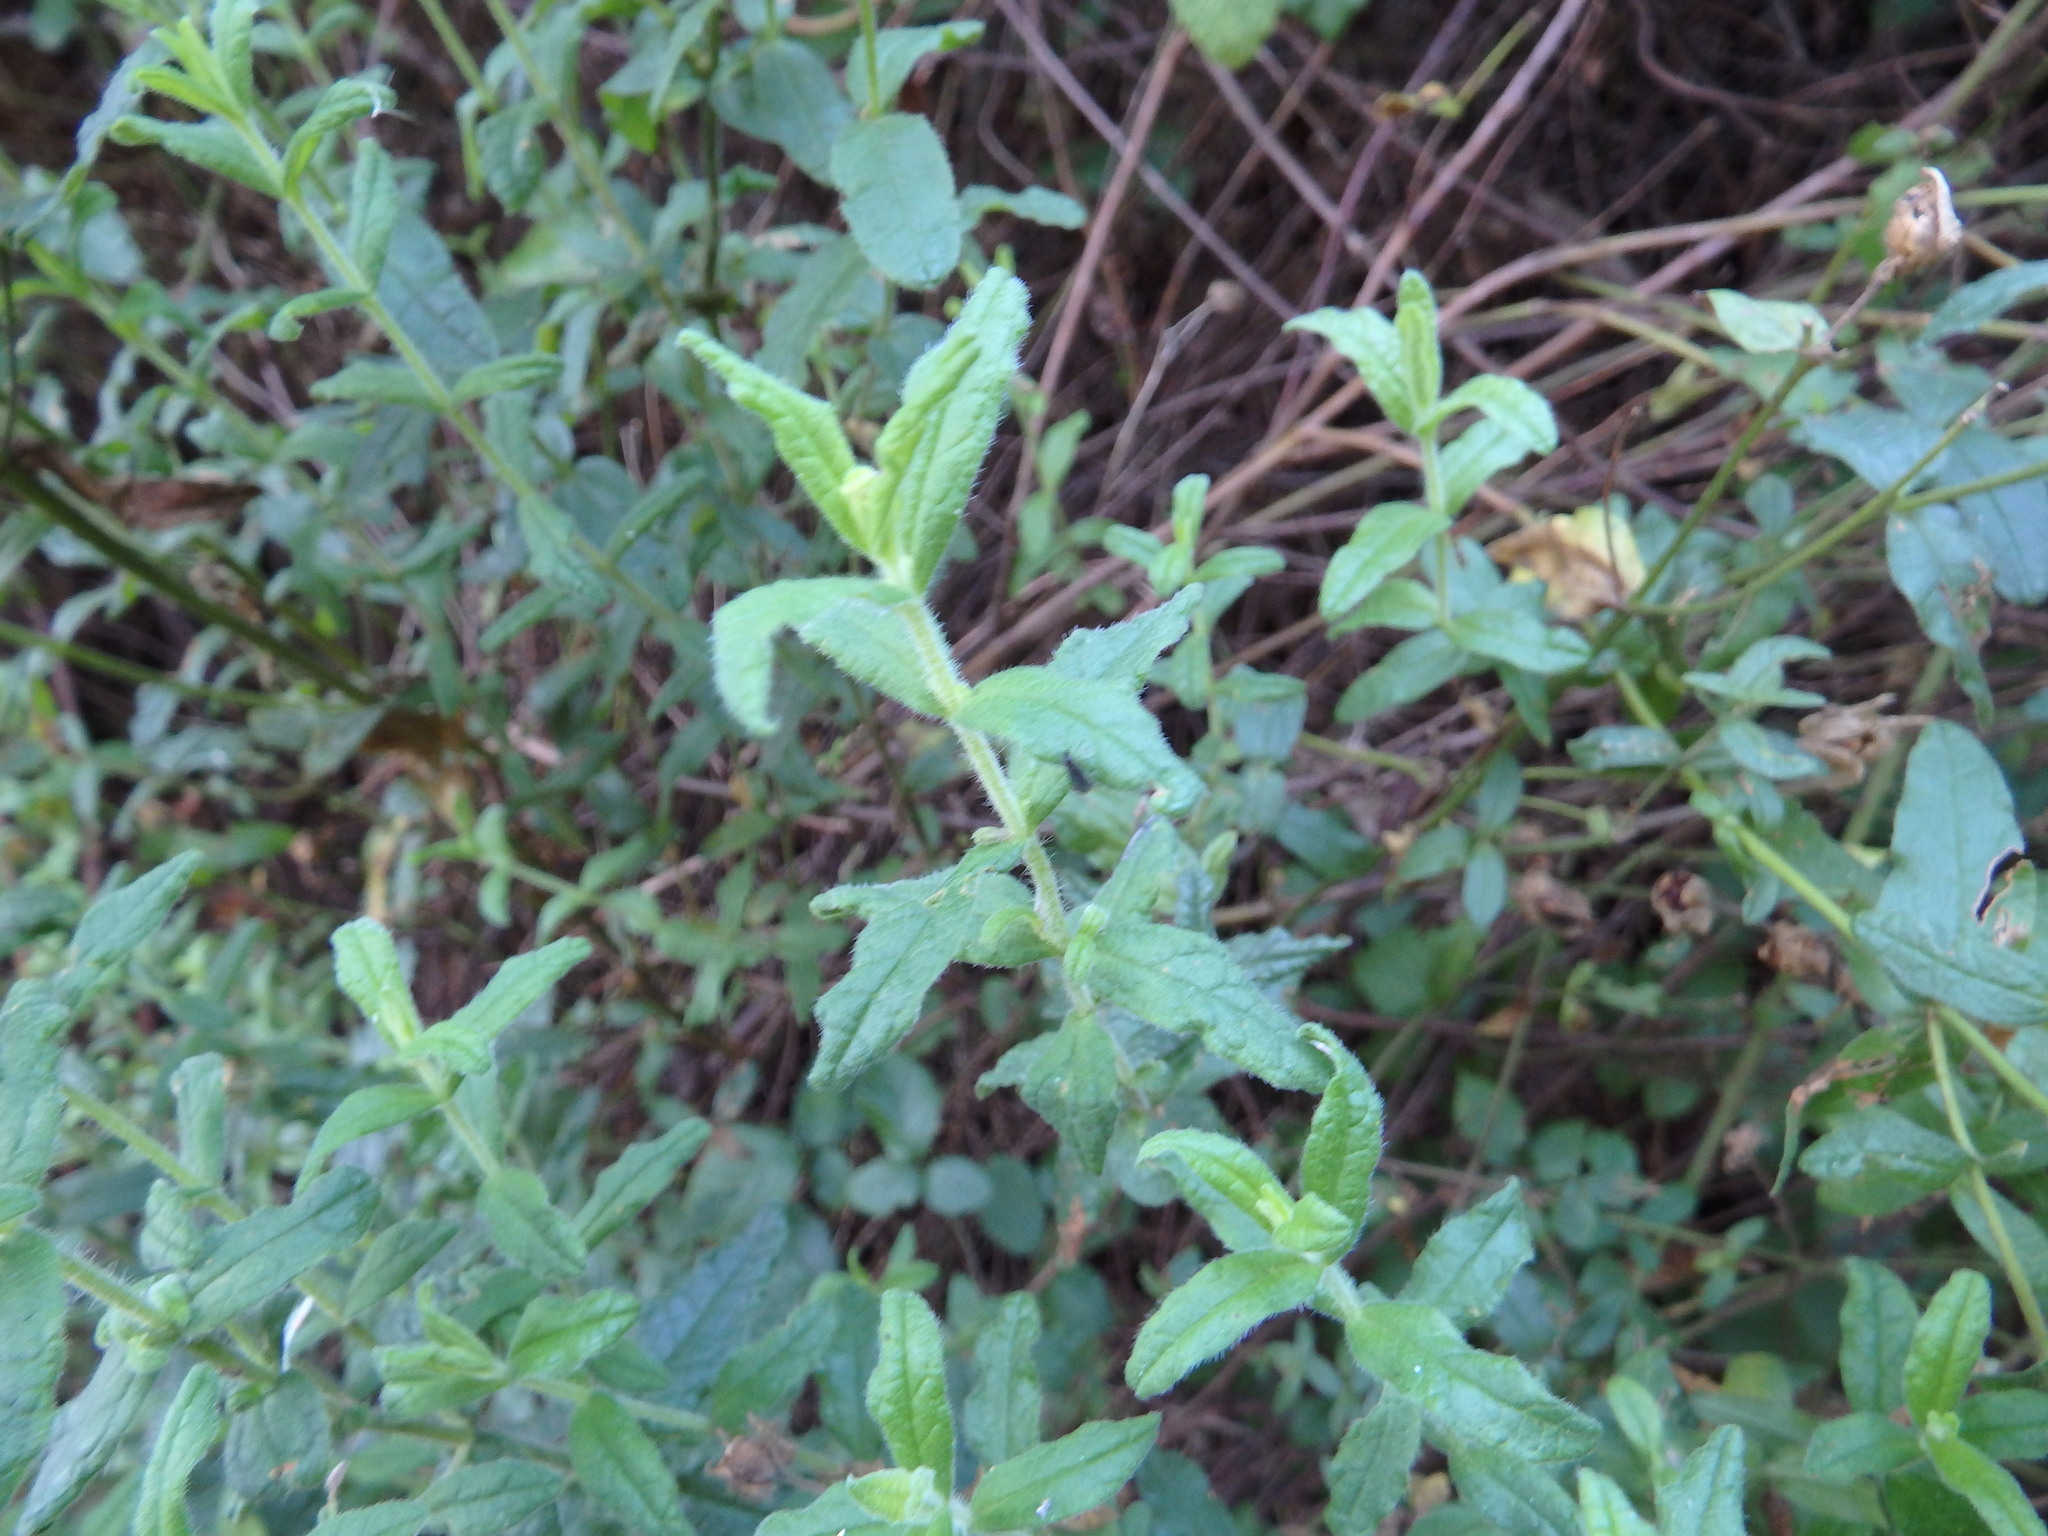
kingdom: Plantae
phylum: Tracheophyta
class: Magnoliopsida
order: Malvales
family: Cistaceae
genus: Cistus
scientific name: Cistus inflatus
